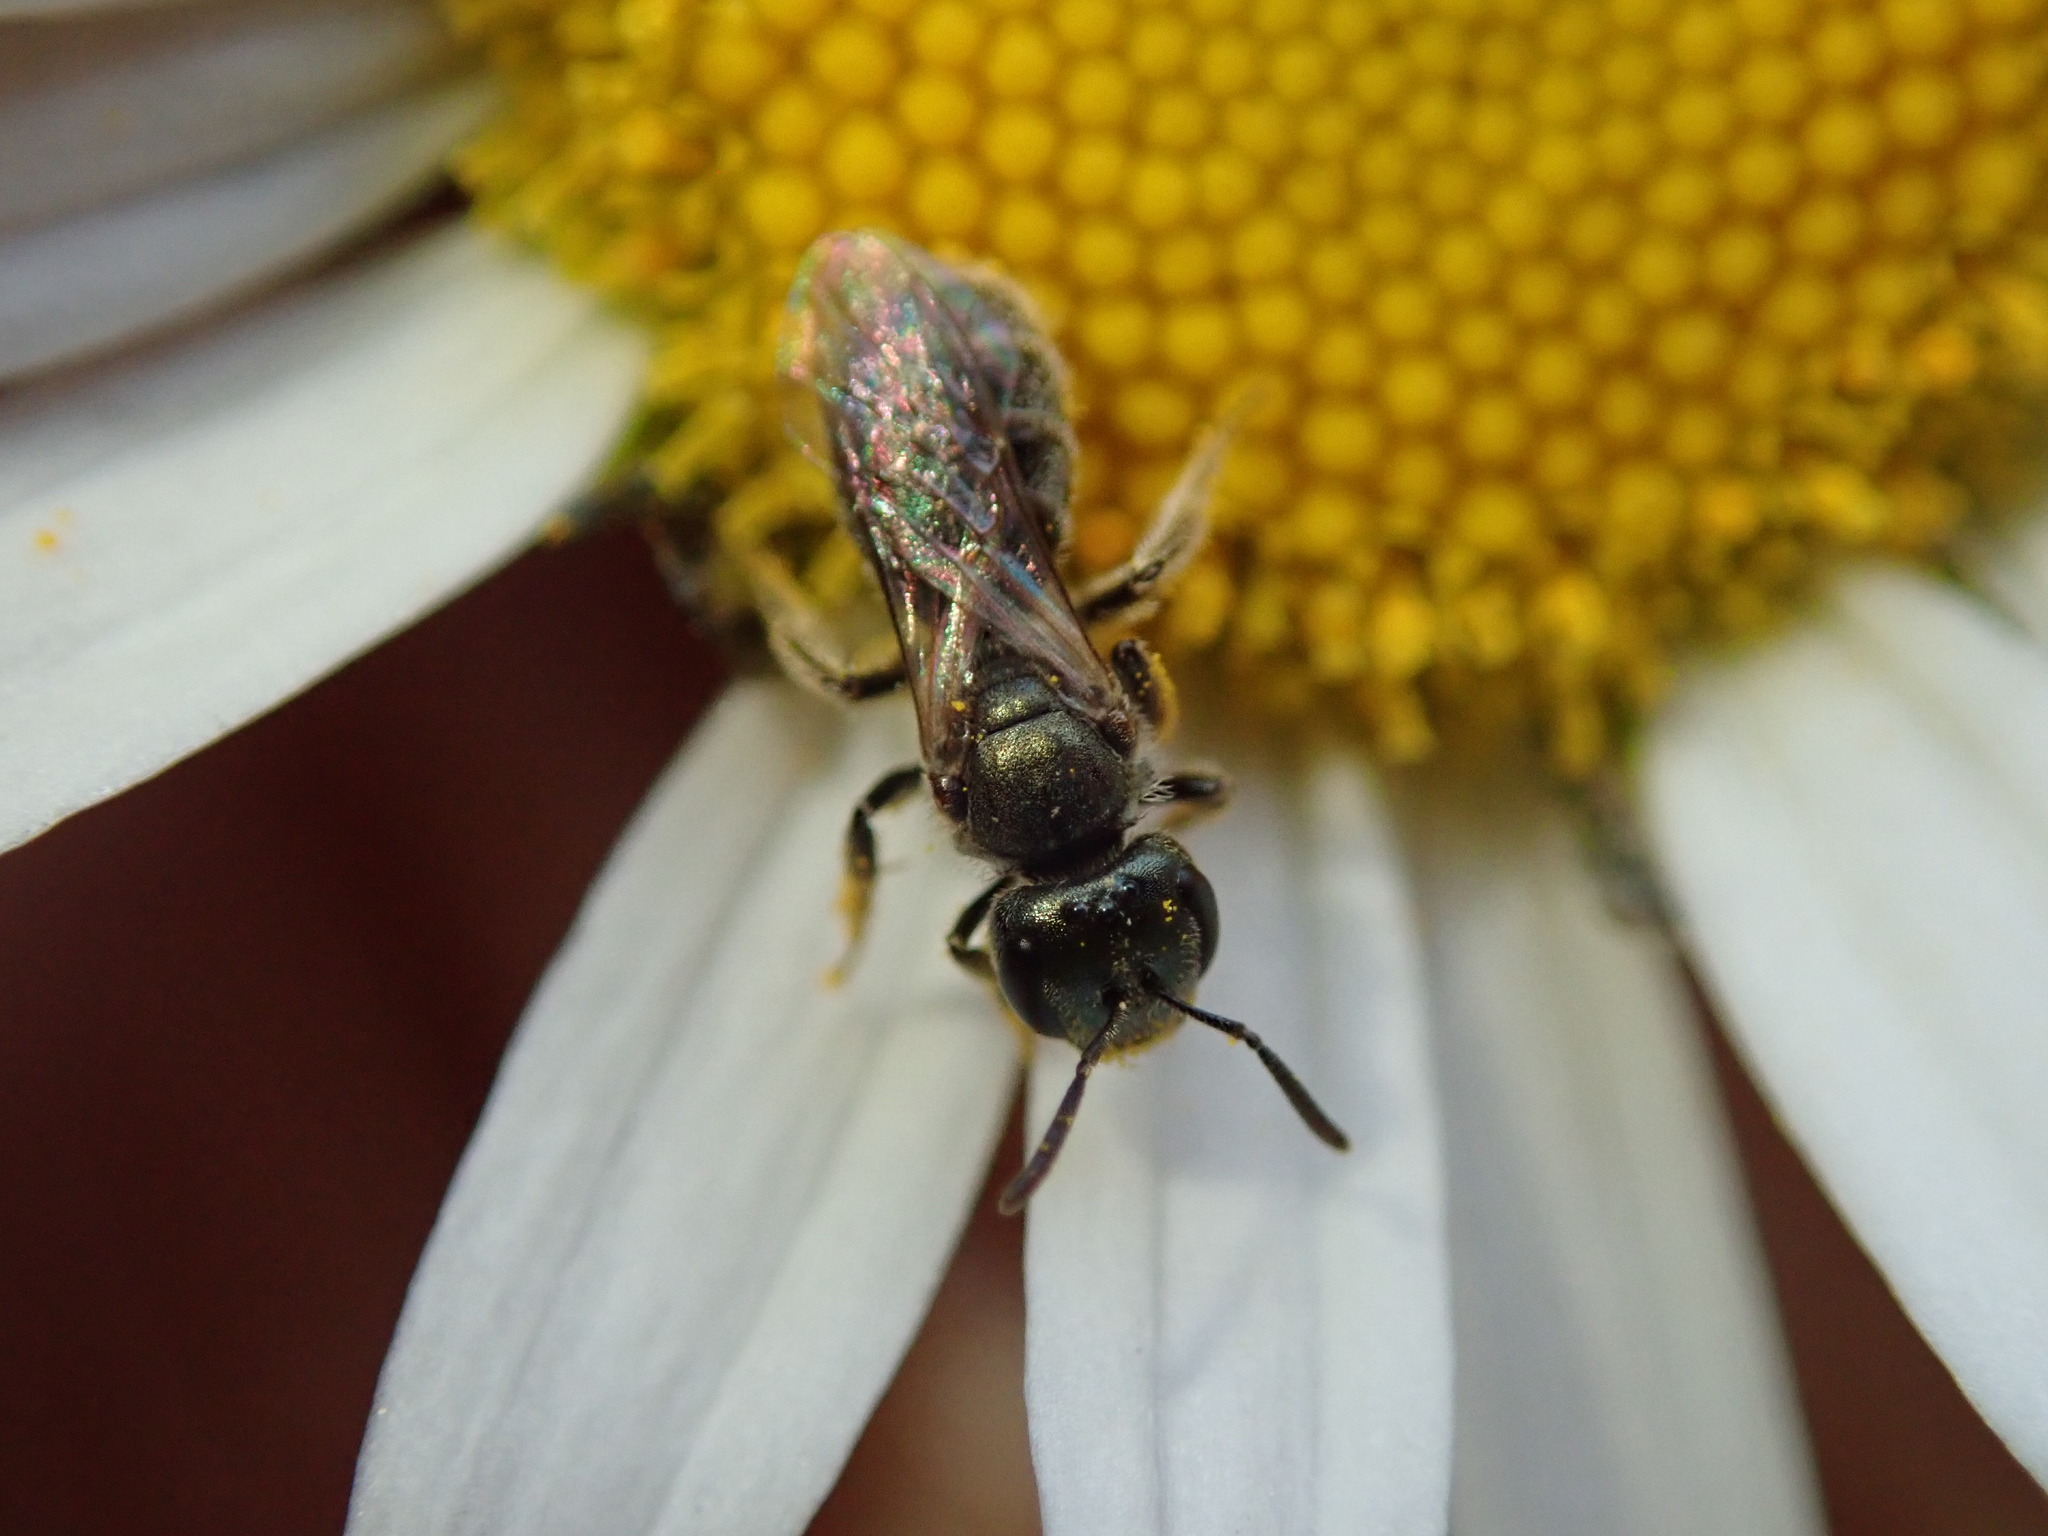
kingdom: Animalia
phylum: Arthropoda
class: Insecta
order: Hymenoptera
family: Halictidae
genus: Dialictus
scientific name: Dialictus
